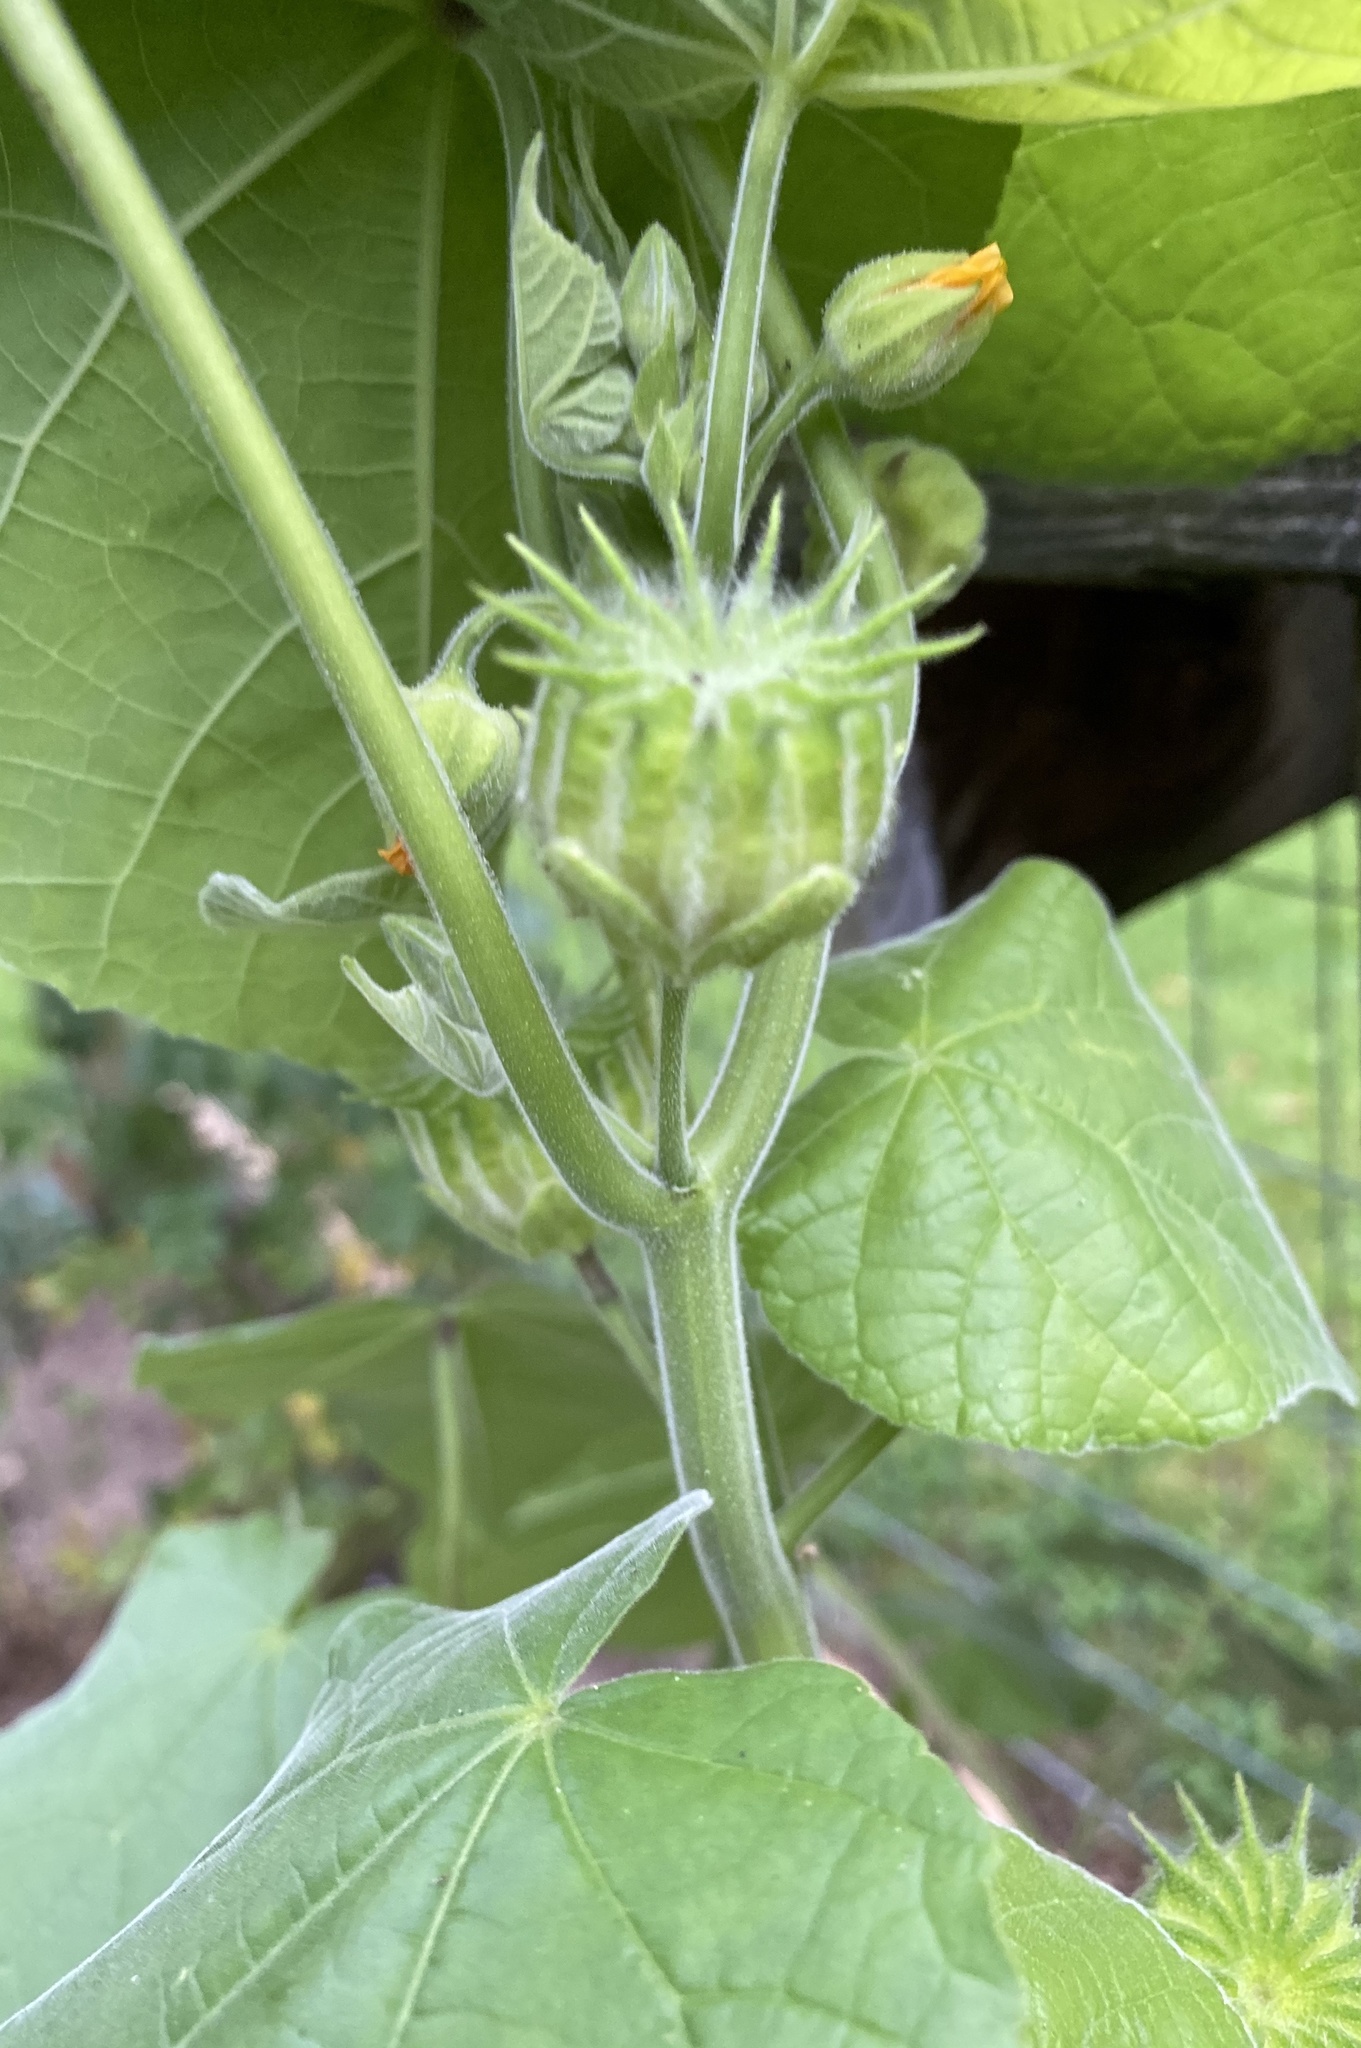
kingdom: Plantae
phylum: Tracheophyta
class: Magnoliopsida
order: Malvales
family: Malvaceae
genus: Abutilon
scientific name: Abutilon theophrasti
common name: Velvetleaf
